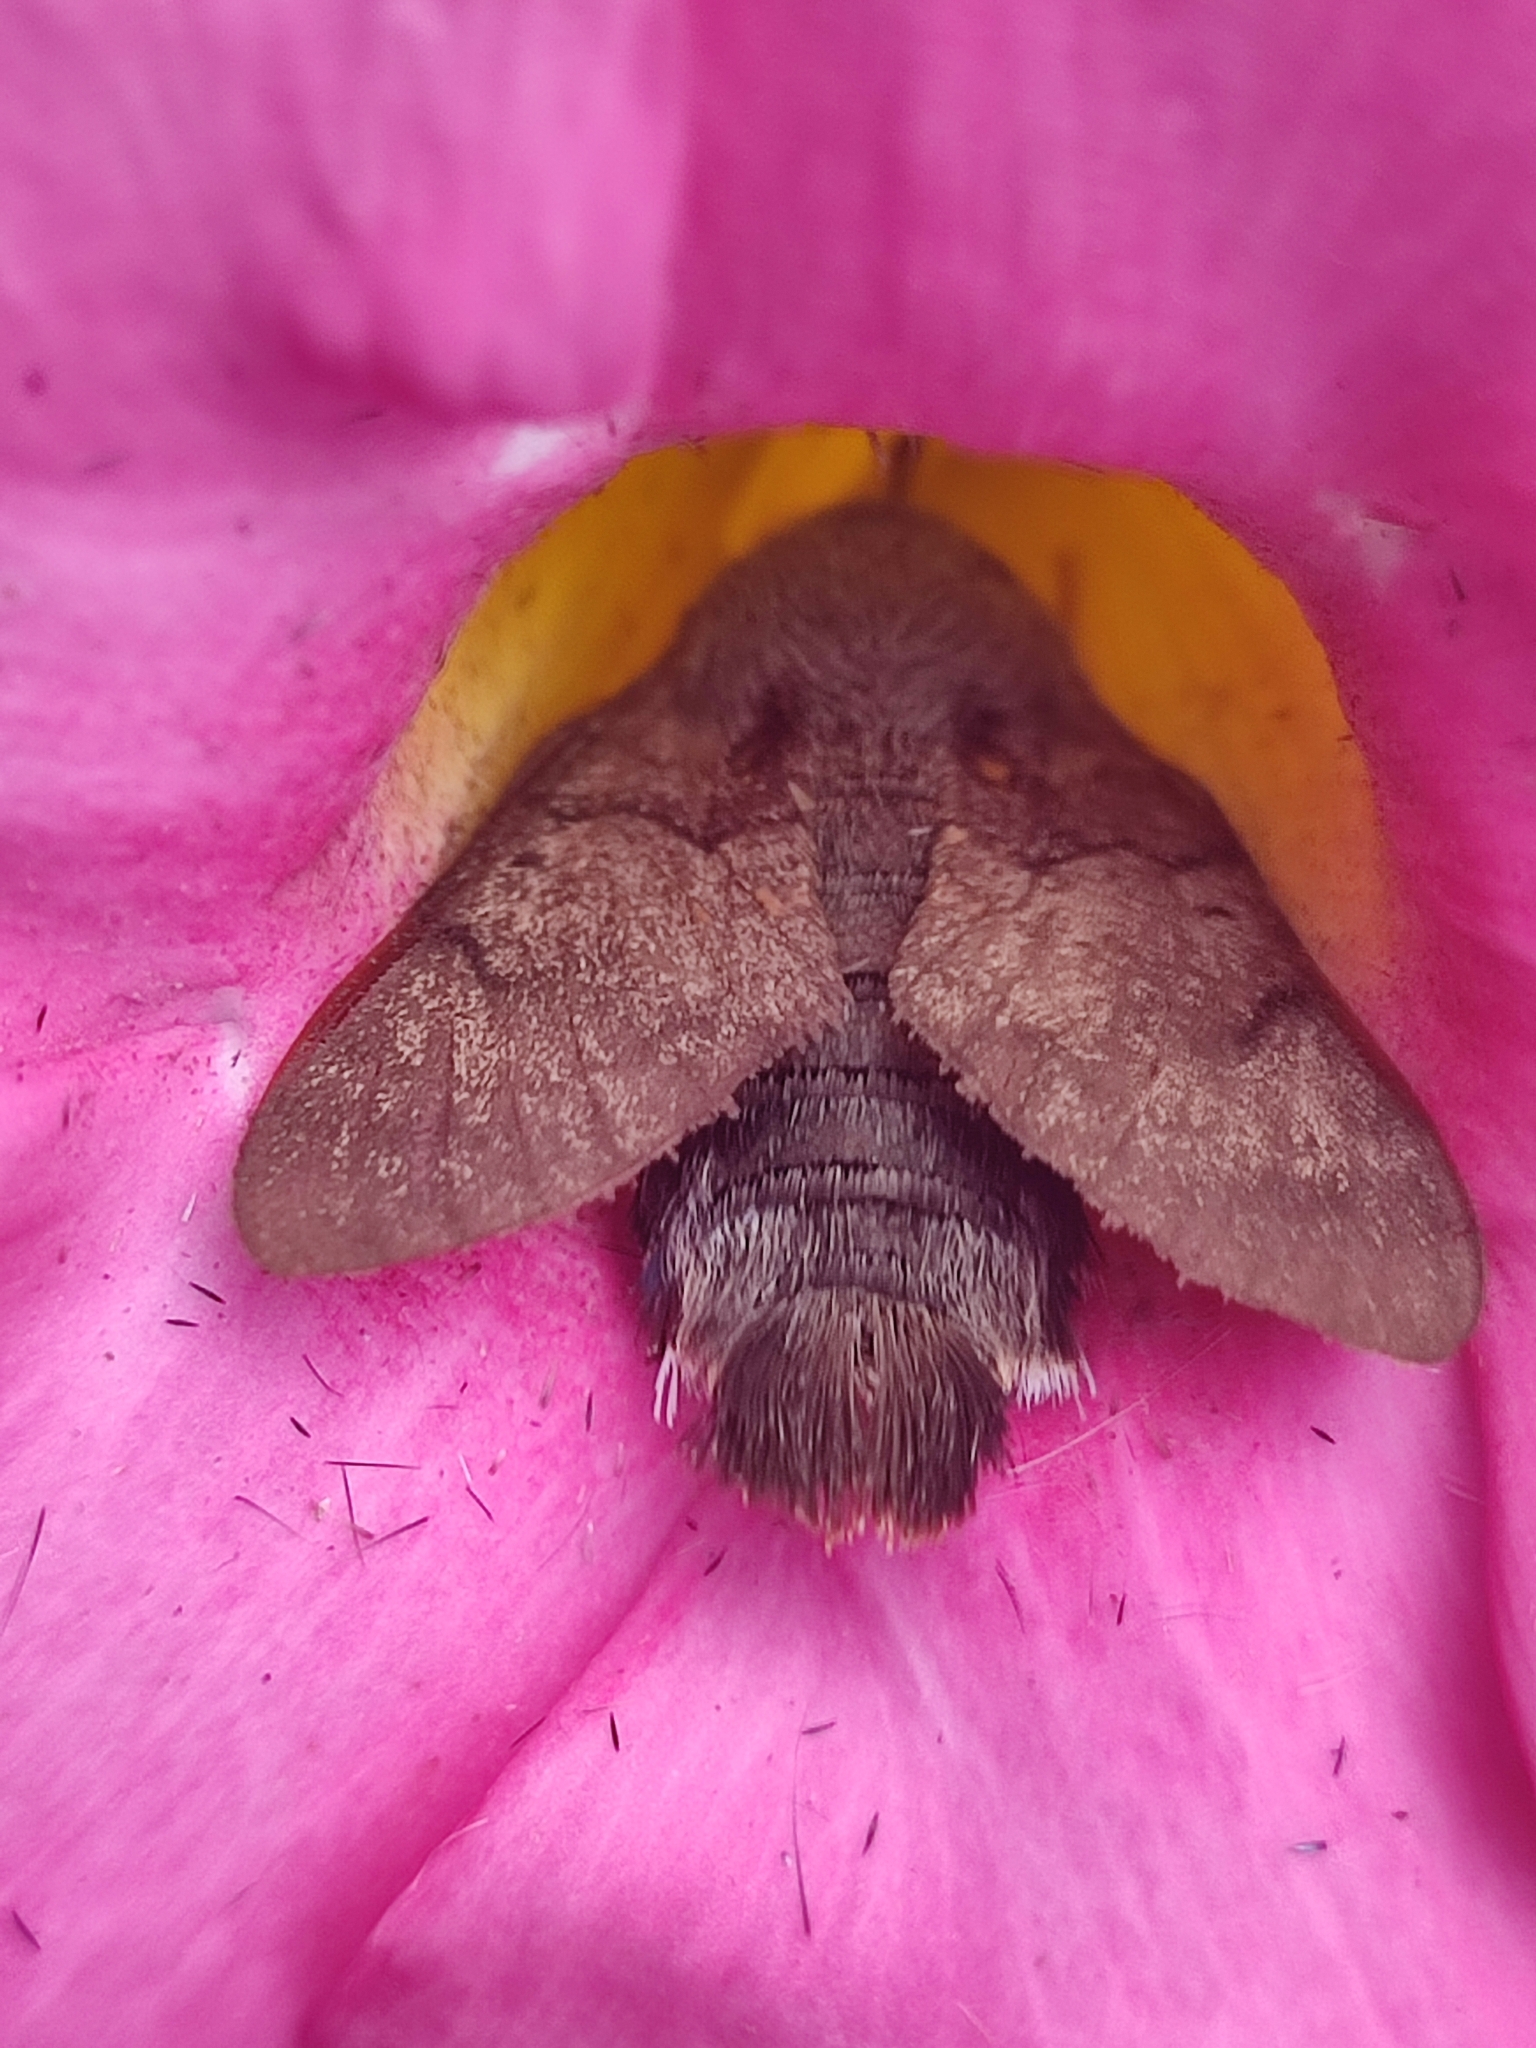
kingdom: Animalia
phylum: Arthropoda
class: Insecta
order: Lepidoptera
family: Sphingidae
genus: Macroglossum
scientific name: Macroglossum stellatarum
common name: Humming-bird hawk-moth
